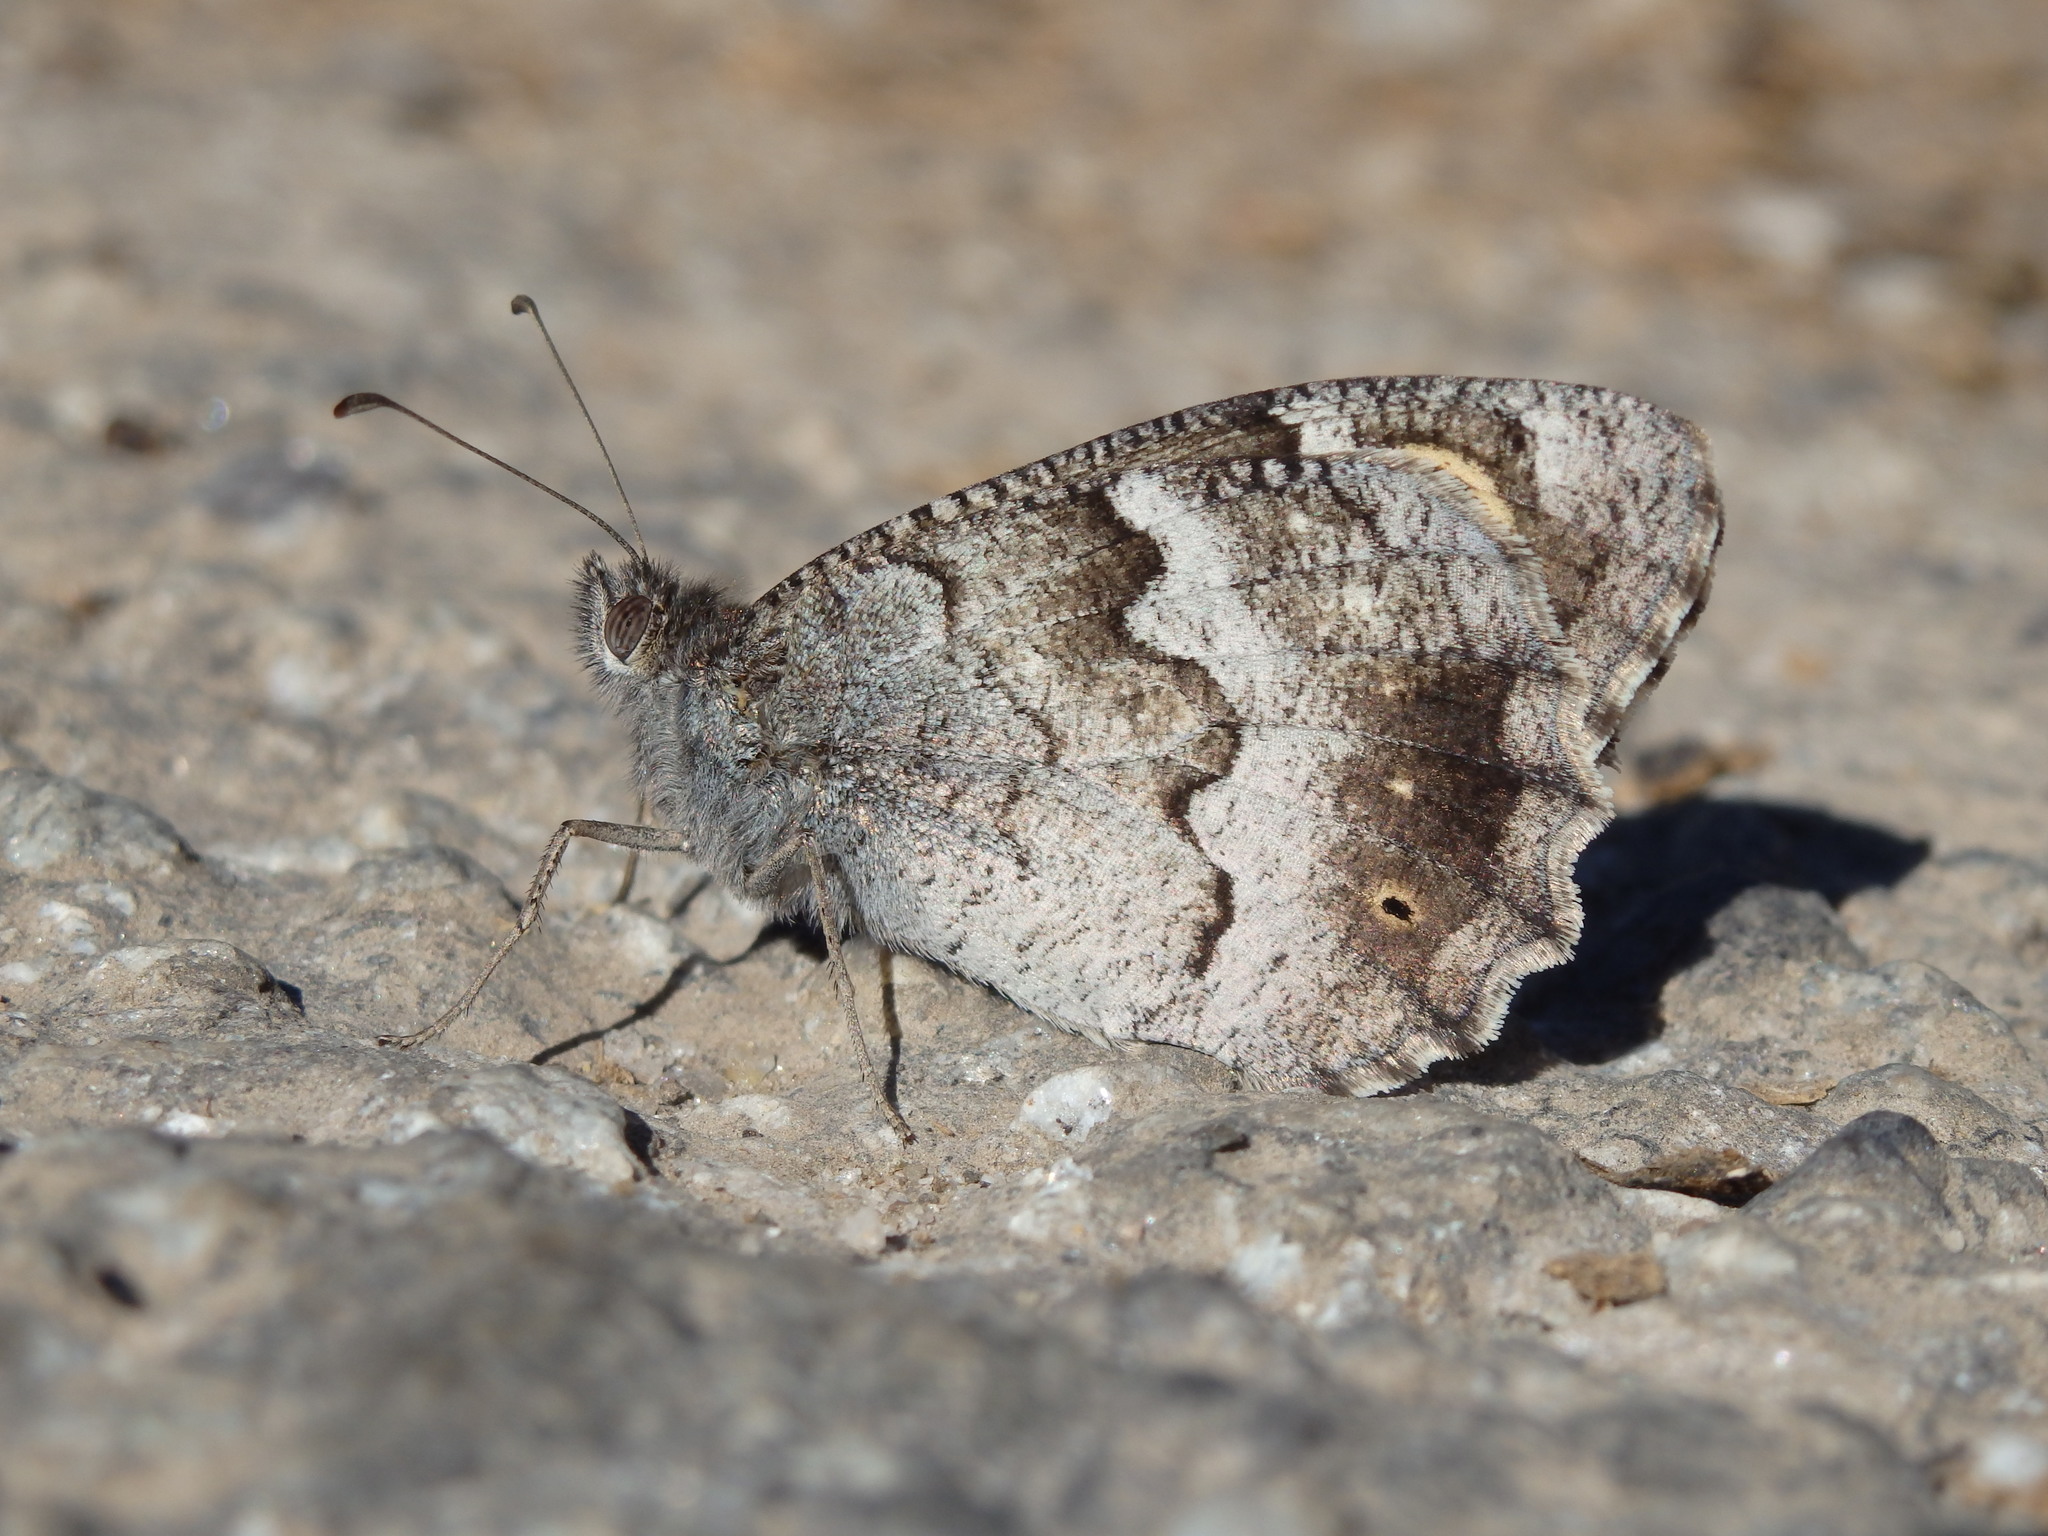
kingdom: Animalia
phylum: Arthropoda
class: Insecta
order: Lepidoptera
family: Nymphalidae
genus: Hipparchia
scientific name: Hipparchia statilinus
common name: Tree grayling
